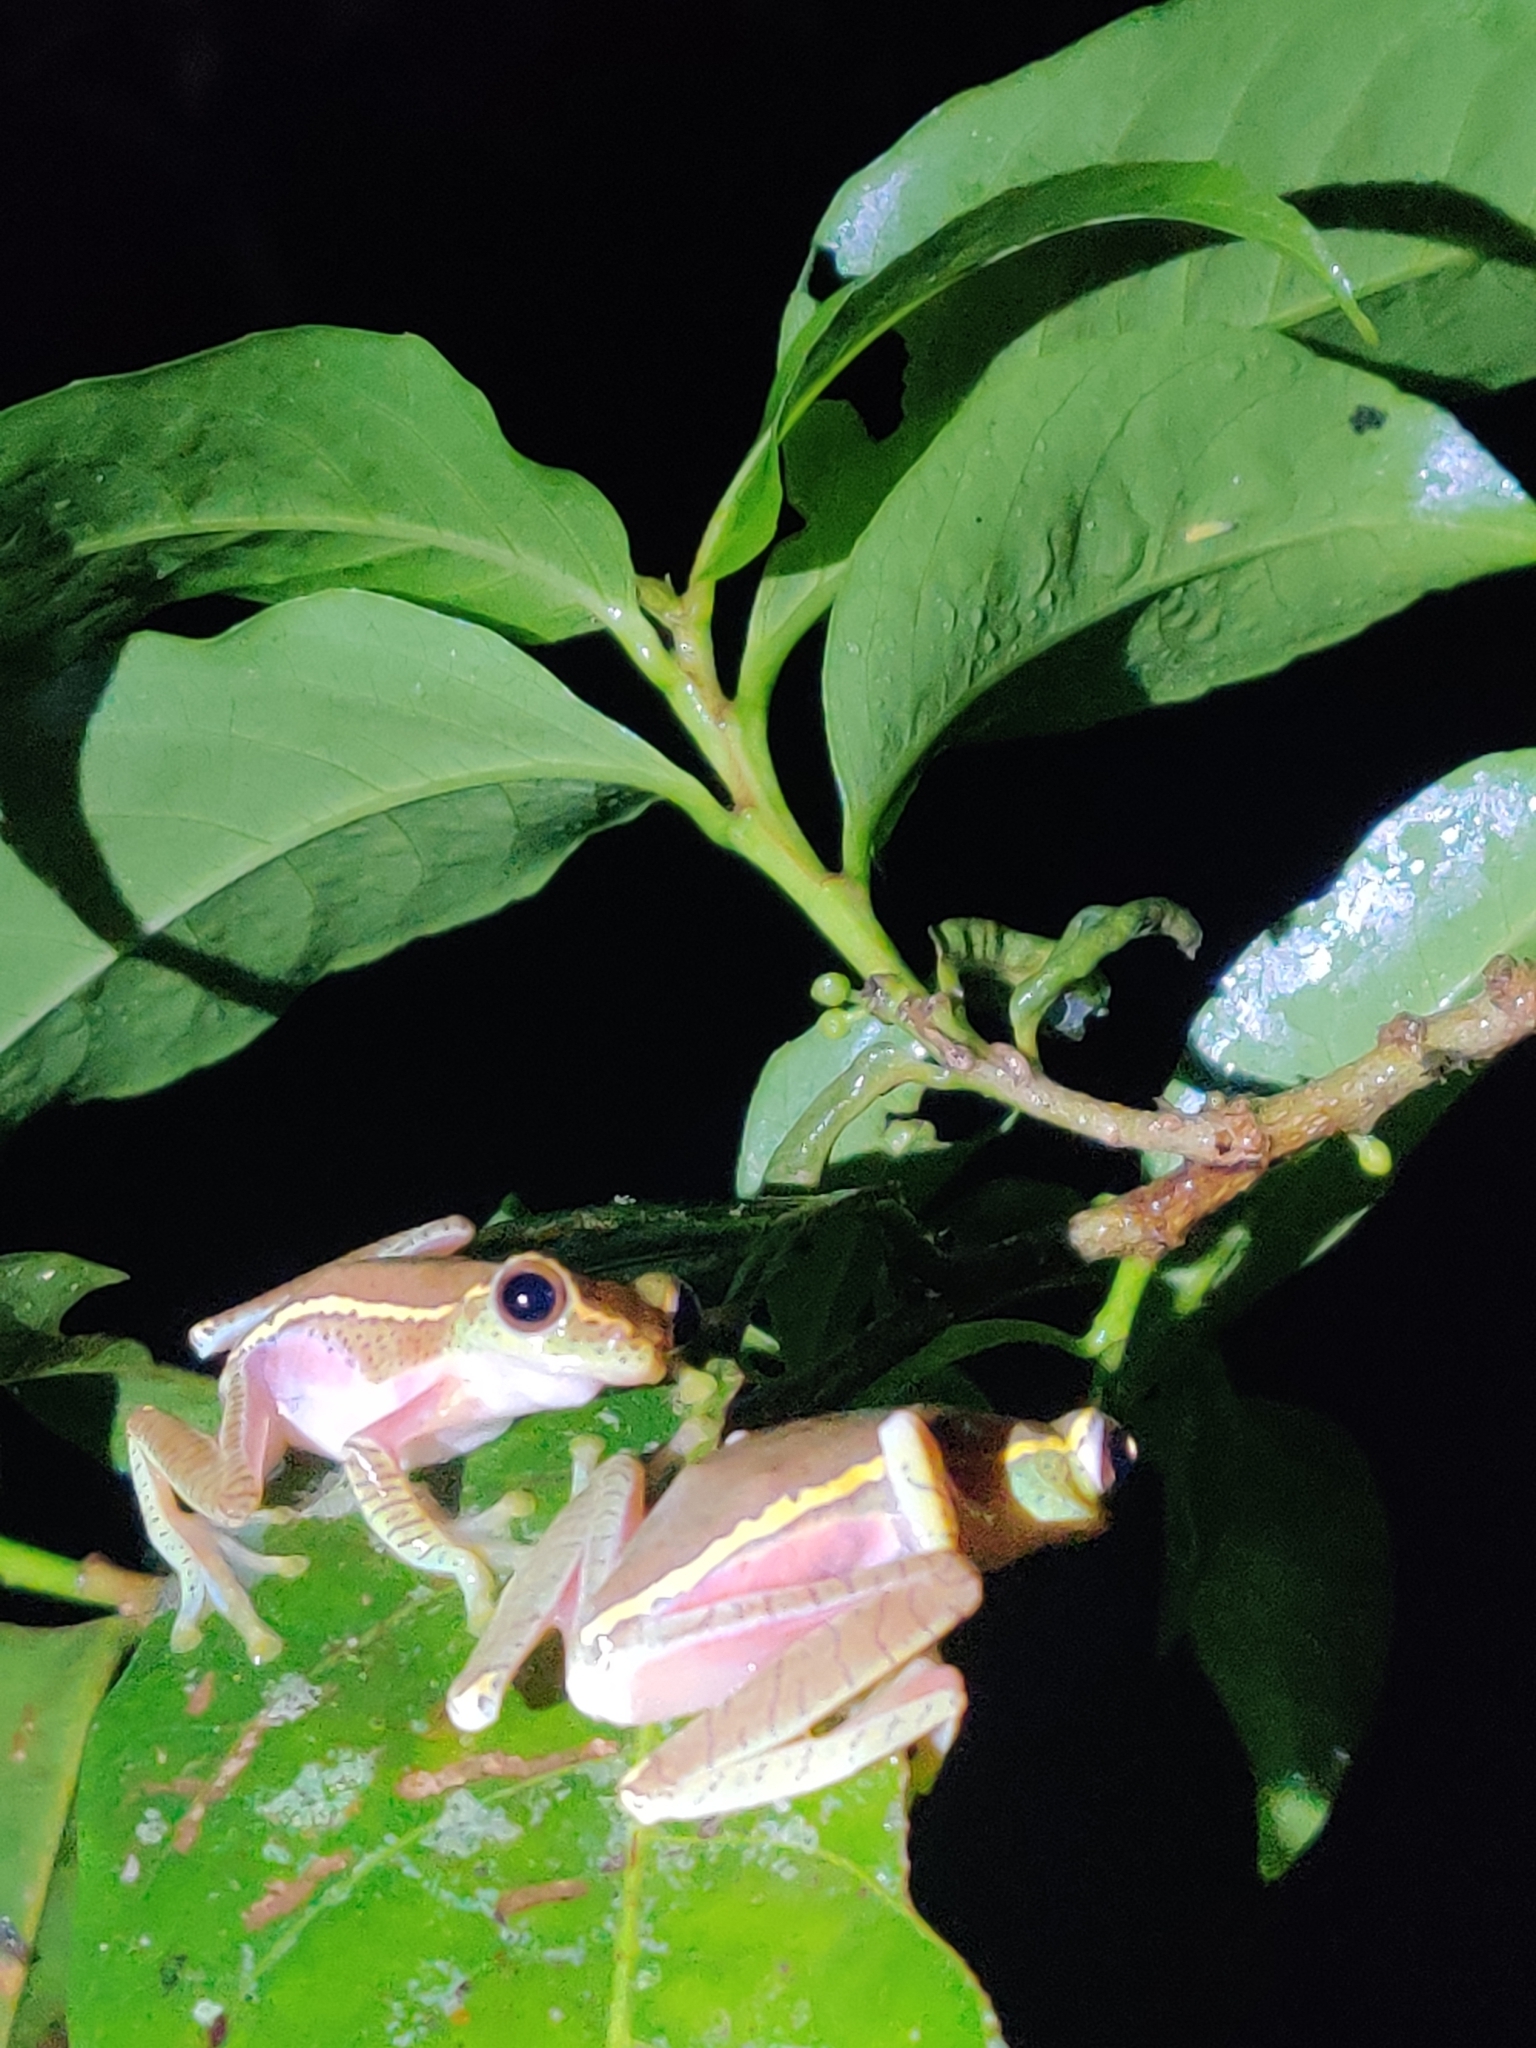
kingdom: Animalia
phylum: Chordata
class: Amphibia
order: Anura
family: Rhacophoridae
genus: Rhacophorus
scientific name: Rhacophorus lateralis
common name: Boulenger's tree frog
